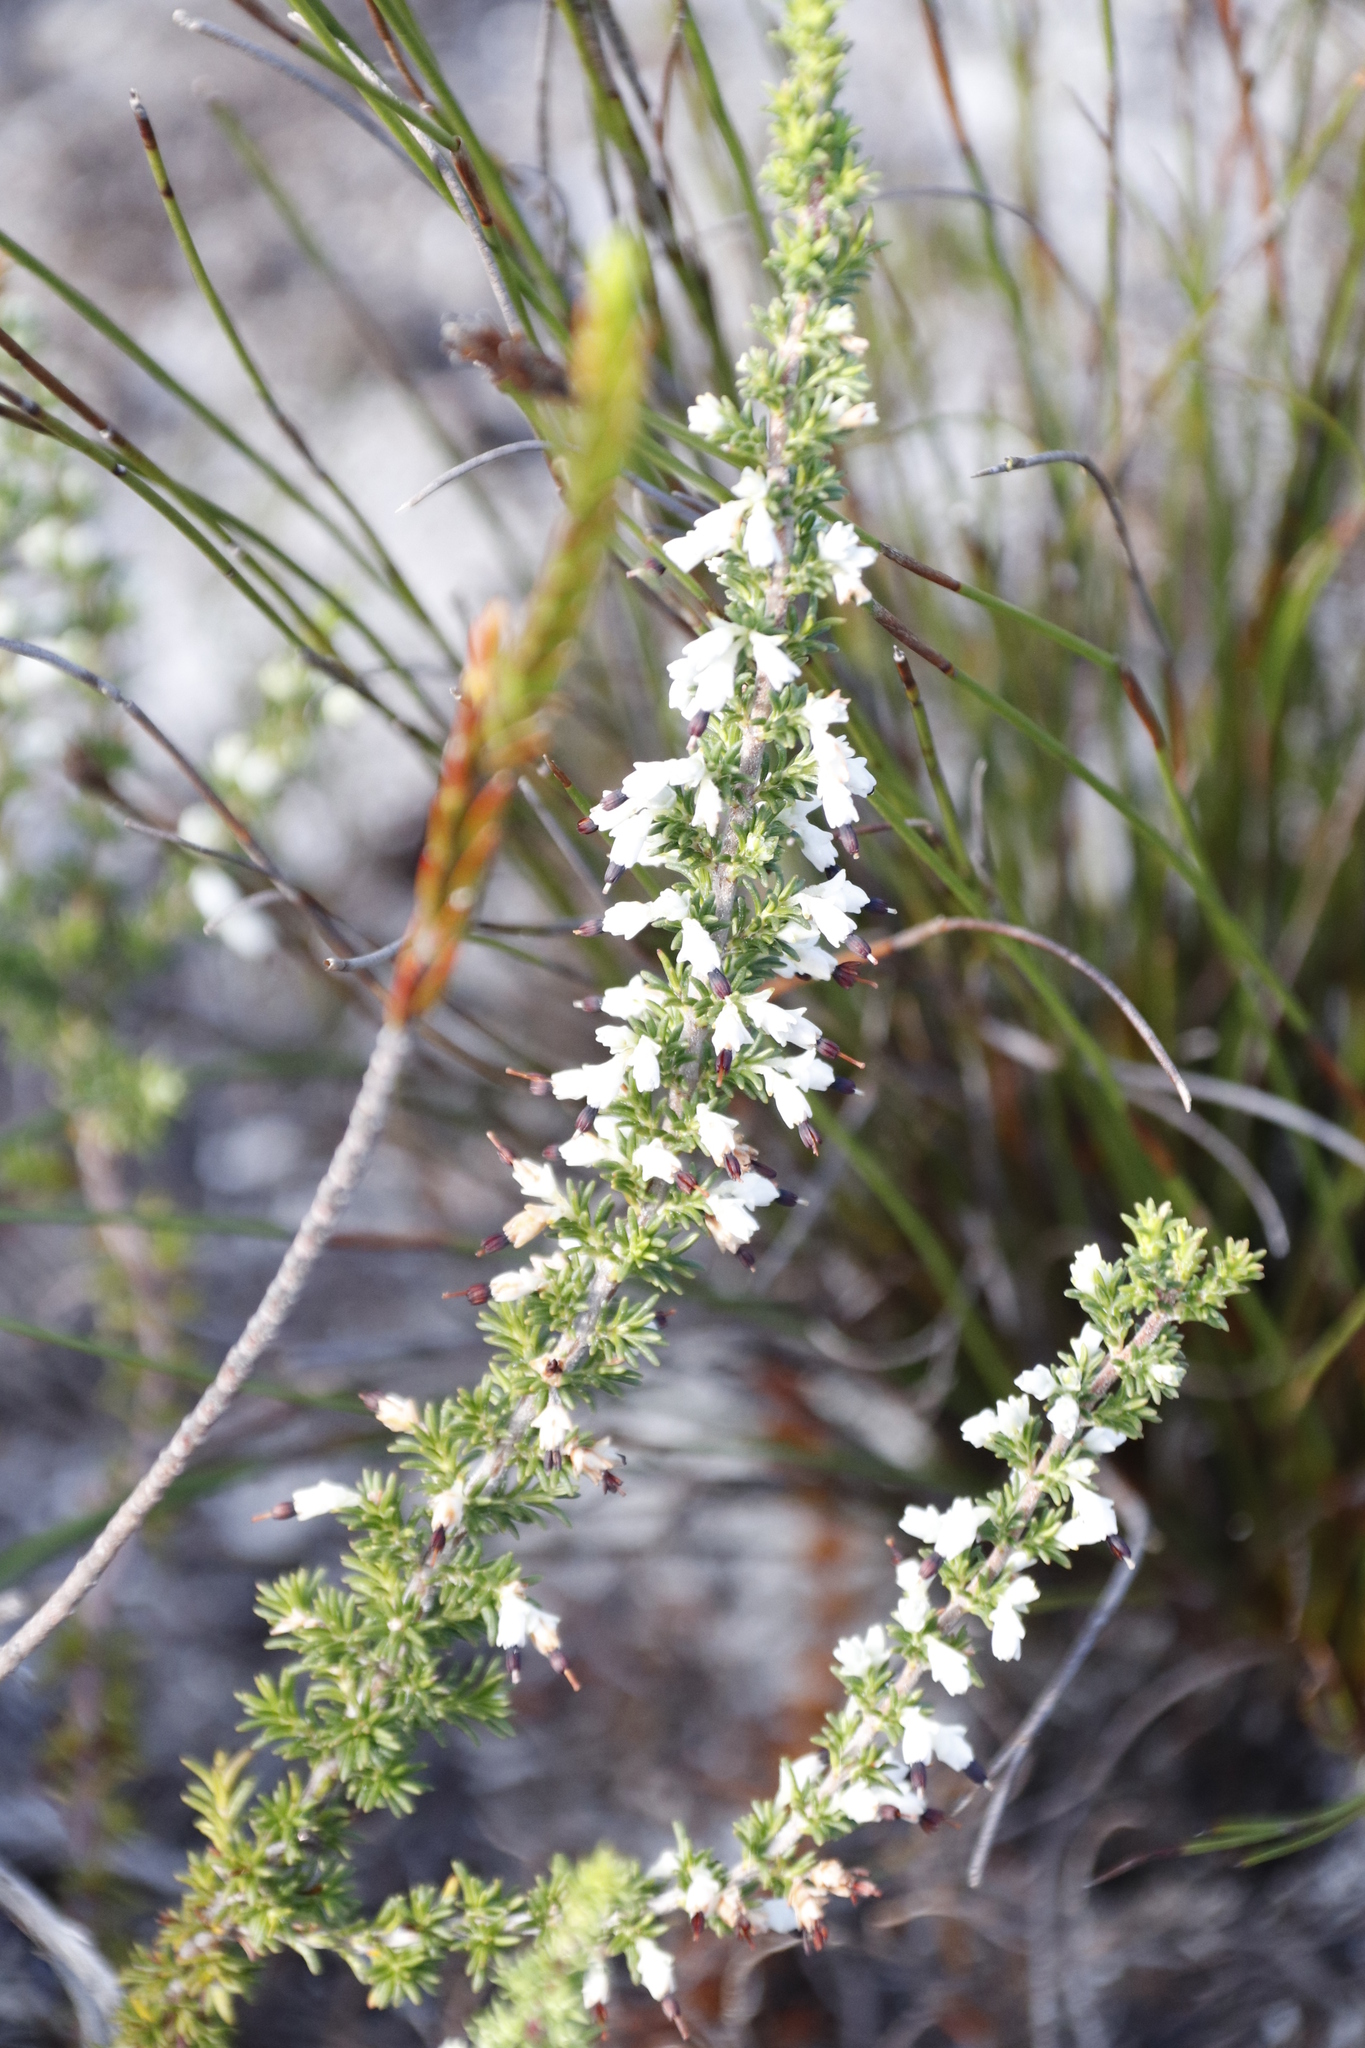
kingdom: Plantae
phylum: Tracheophyta
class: Magnoliopsida
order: Ericales
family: Ericaceae
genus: Erica
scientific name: Erica imbricata
